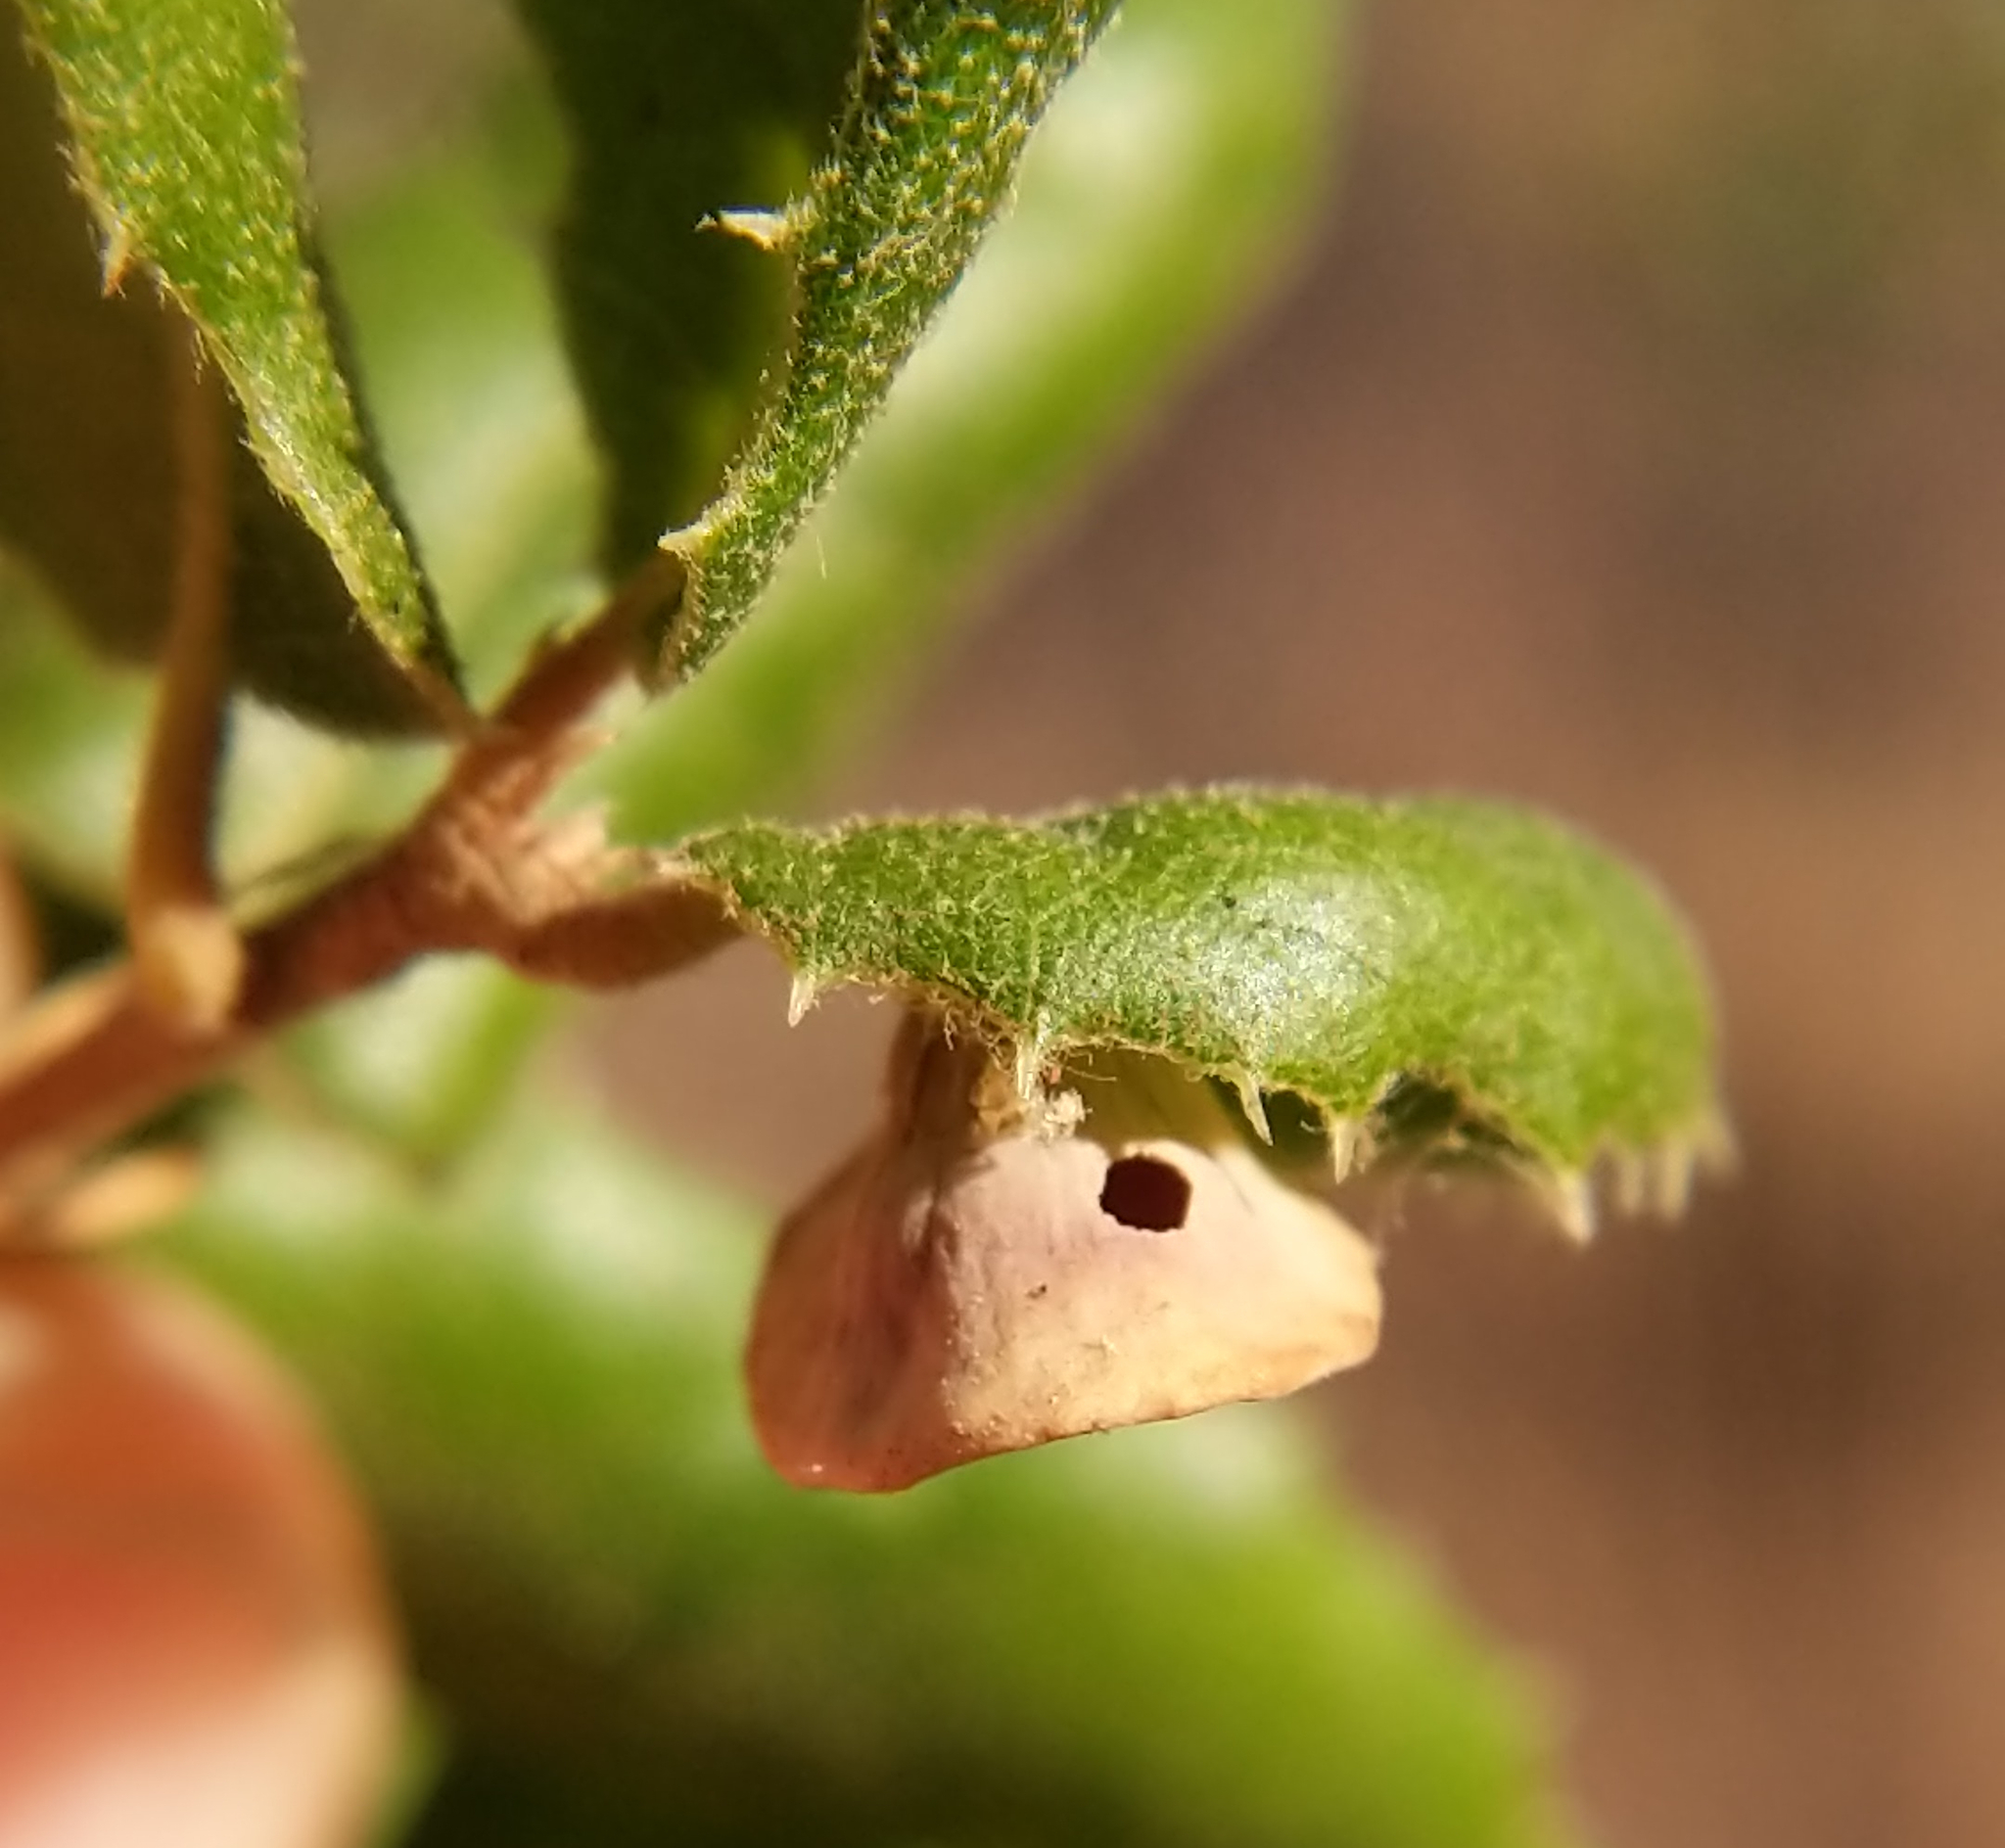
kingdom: Animalia
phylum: Arthropoda
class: Insecta
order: Hymenoptera
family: Cynipidae
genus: Amphibolips
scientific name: Amphibolips quercuspomiformis
